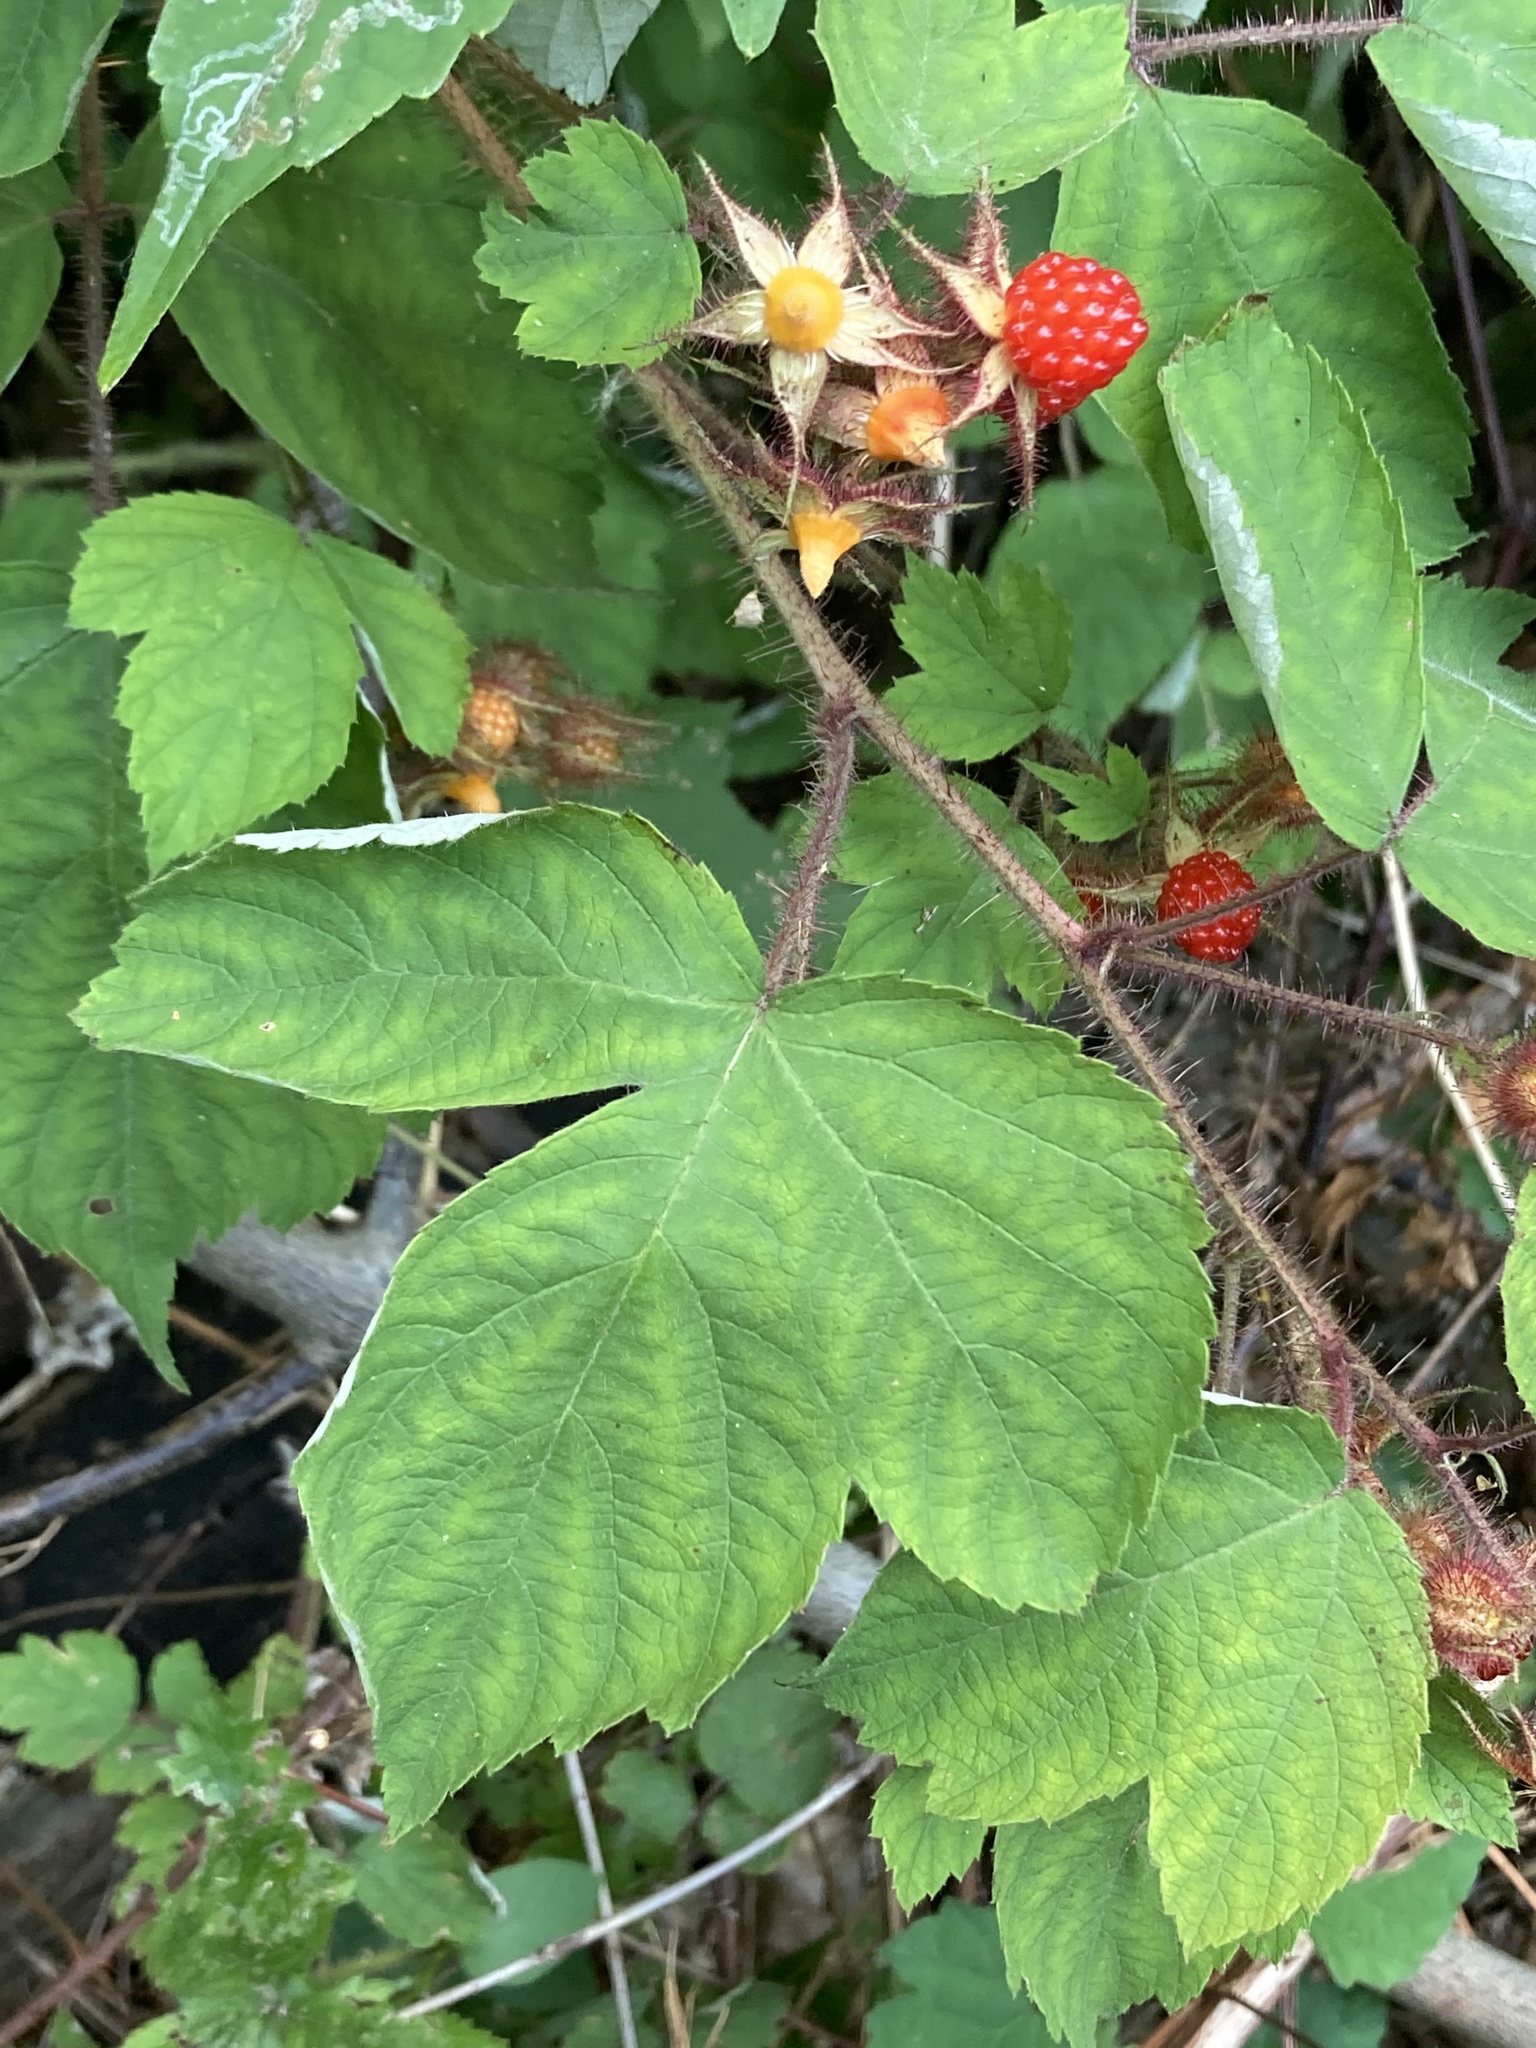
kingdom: Plantae
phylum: Tracheophyta
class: Magnoliopsida
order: Rosales
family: Rosaceae
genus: Rubus
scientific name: Rubus phoenicolasius
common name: Japanese wineberry
